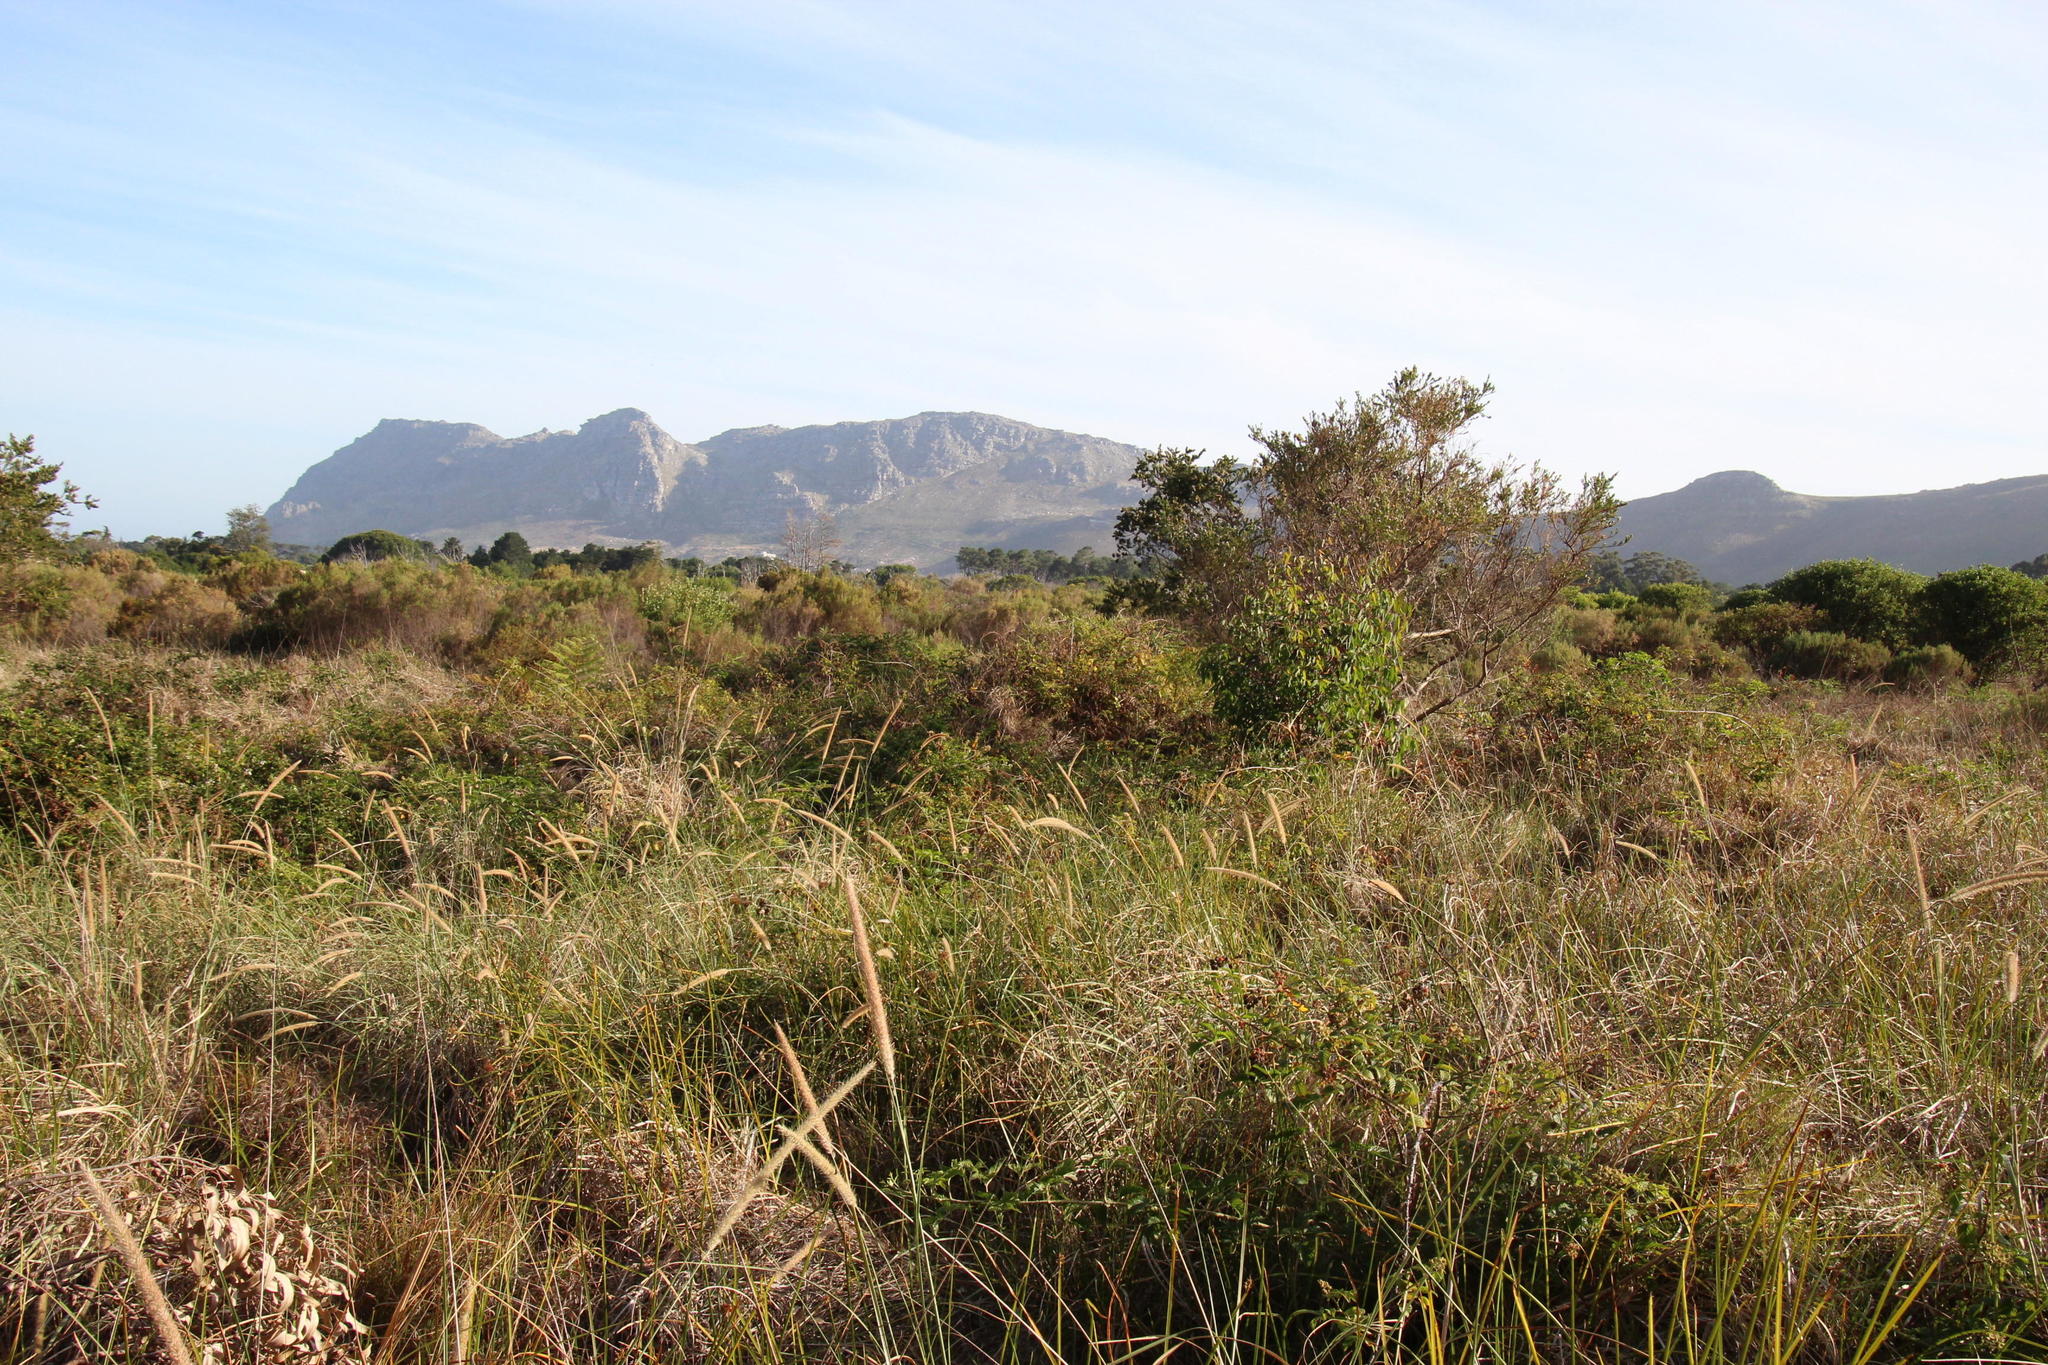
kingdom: Plantae
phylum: Tracheophyta
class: Magnoliopsida
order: Rosales
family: Rosaceae
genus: Rubus
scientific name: Rubus pinnatus
